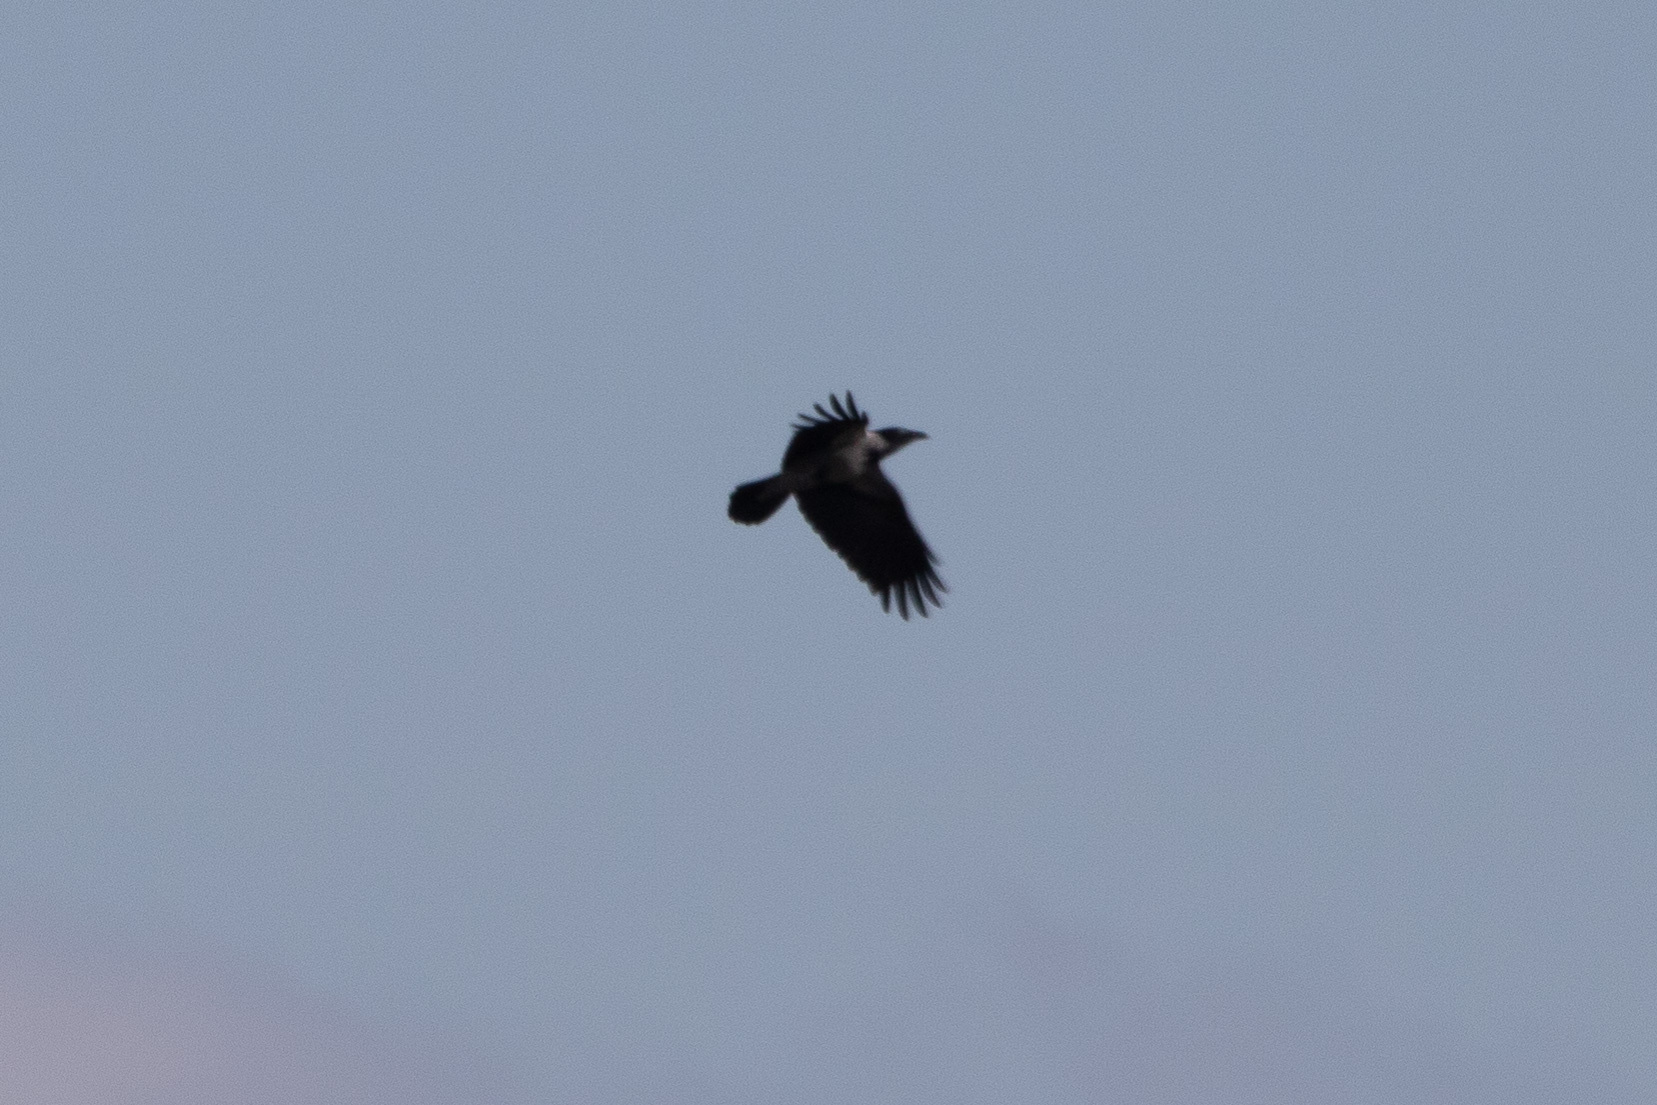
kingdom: Animalia
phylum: Chordata
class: Aves
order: Passeriformes
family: Corvidae
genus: Corvus
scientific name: Corvus cornix
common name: Hooded crow
